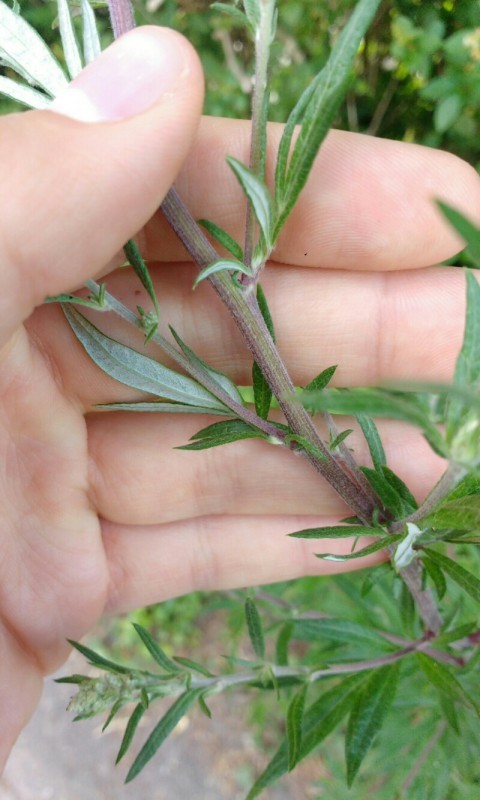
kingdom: Plantae
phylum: Tracheophyta
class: Magnoliopsida
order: Asterales
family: Asteraceae
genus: Artemisia
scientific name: Artemisia vulgaris
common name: Mugwort
